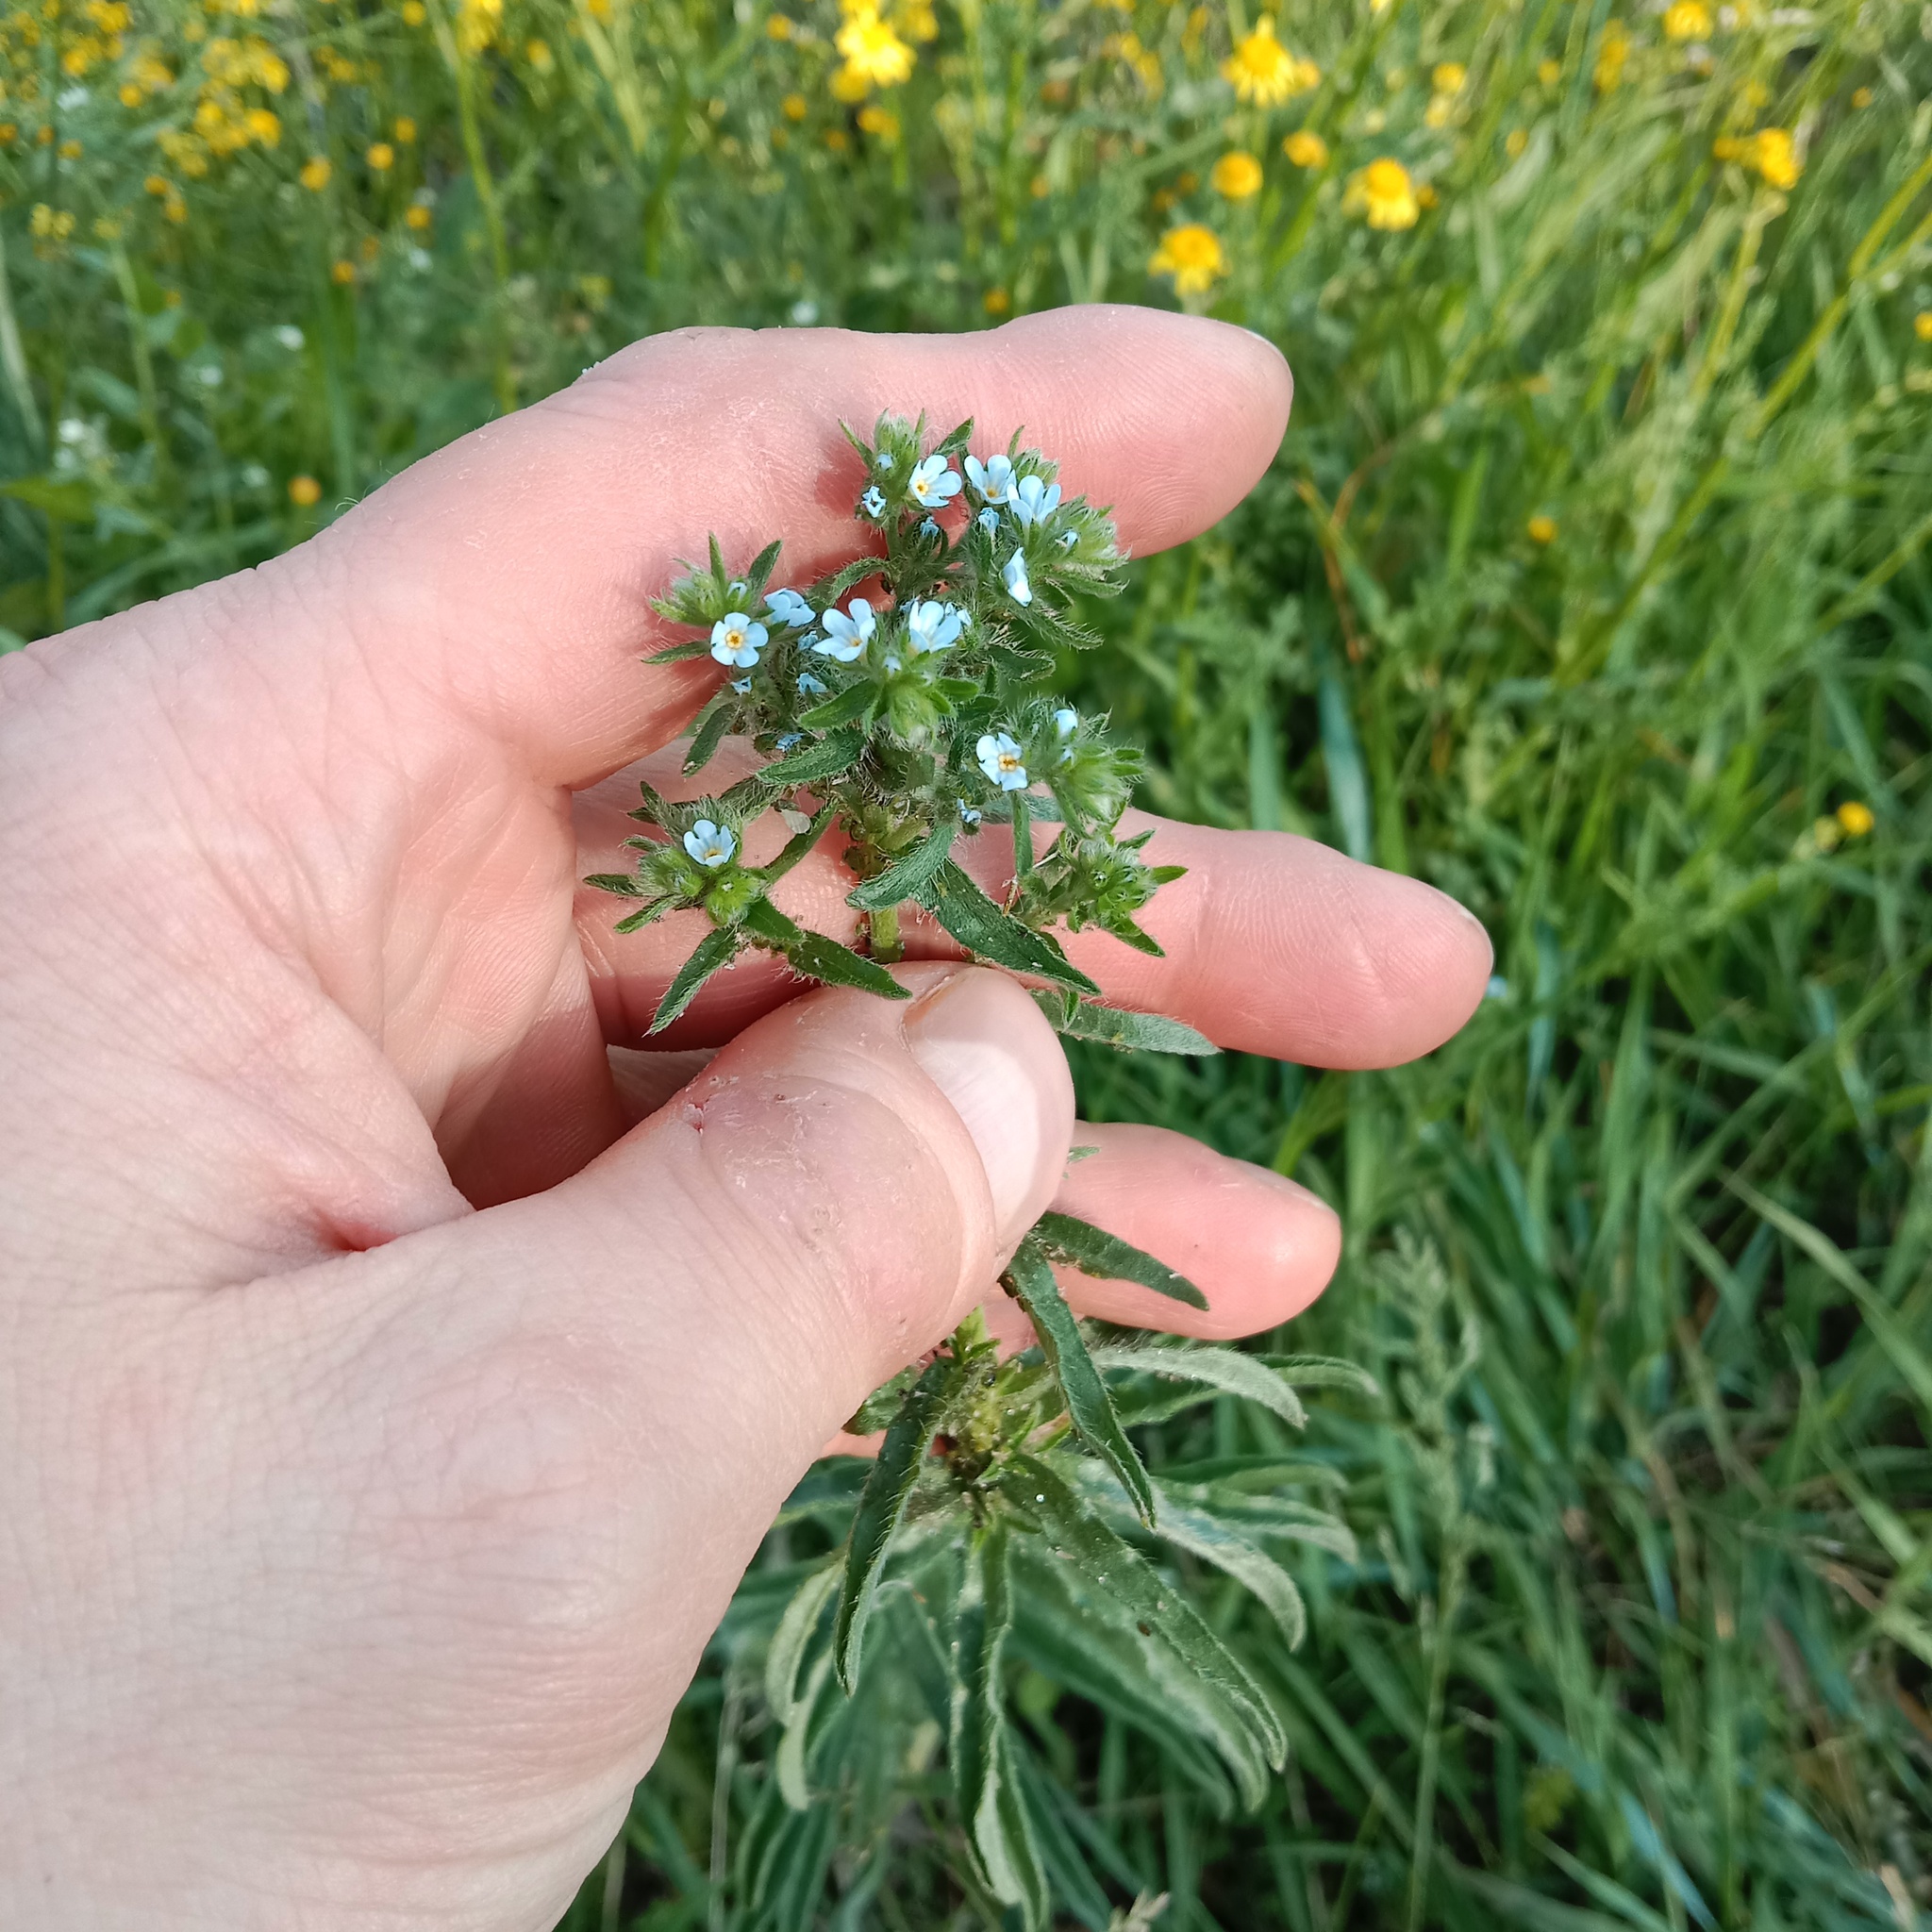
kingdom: Plantae
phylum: Tracheophyta
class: Magnoliopsida
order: Ranunculales
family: Ranunculaceae
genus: Ficaria
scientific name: Ficaria verna
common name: Lesser celandine
